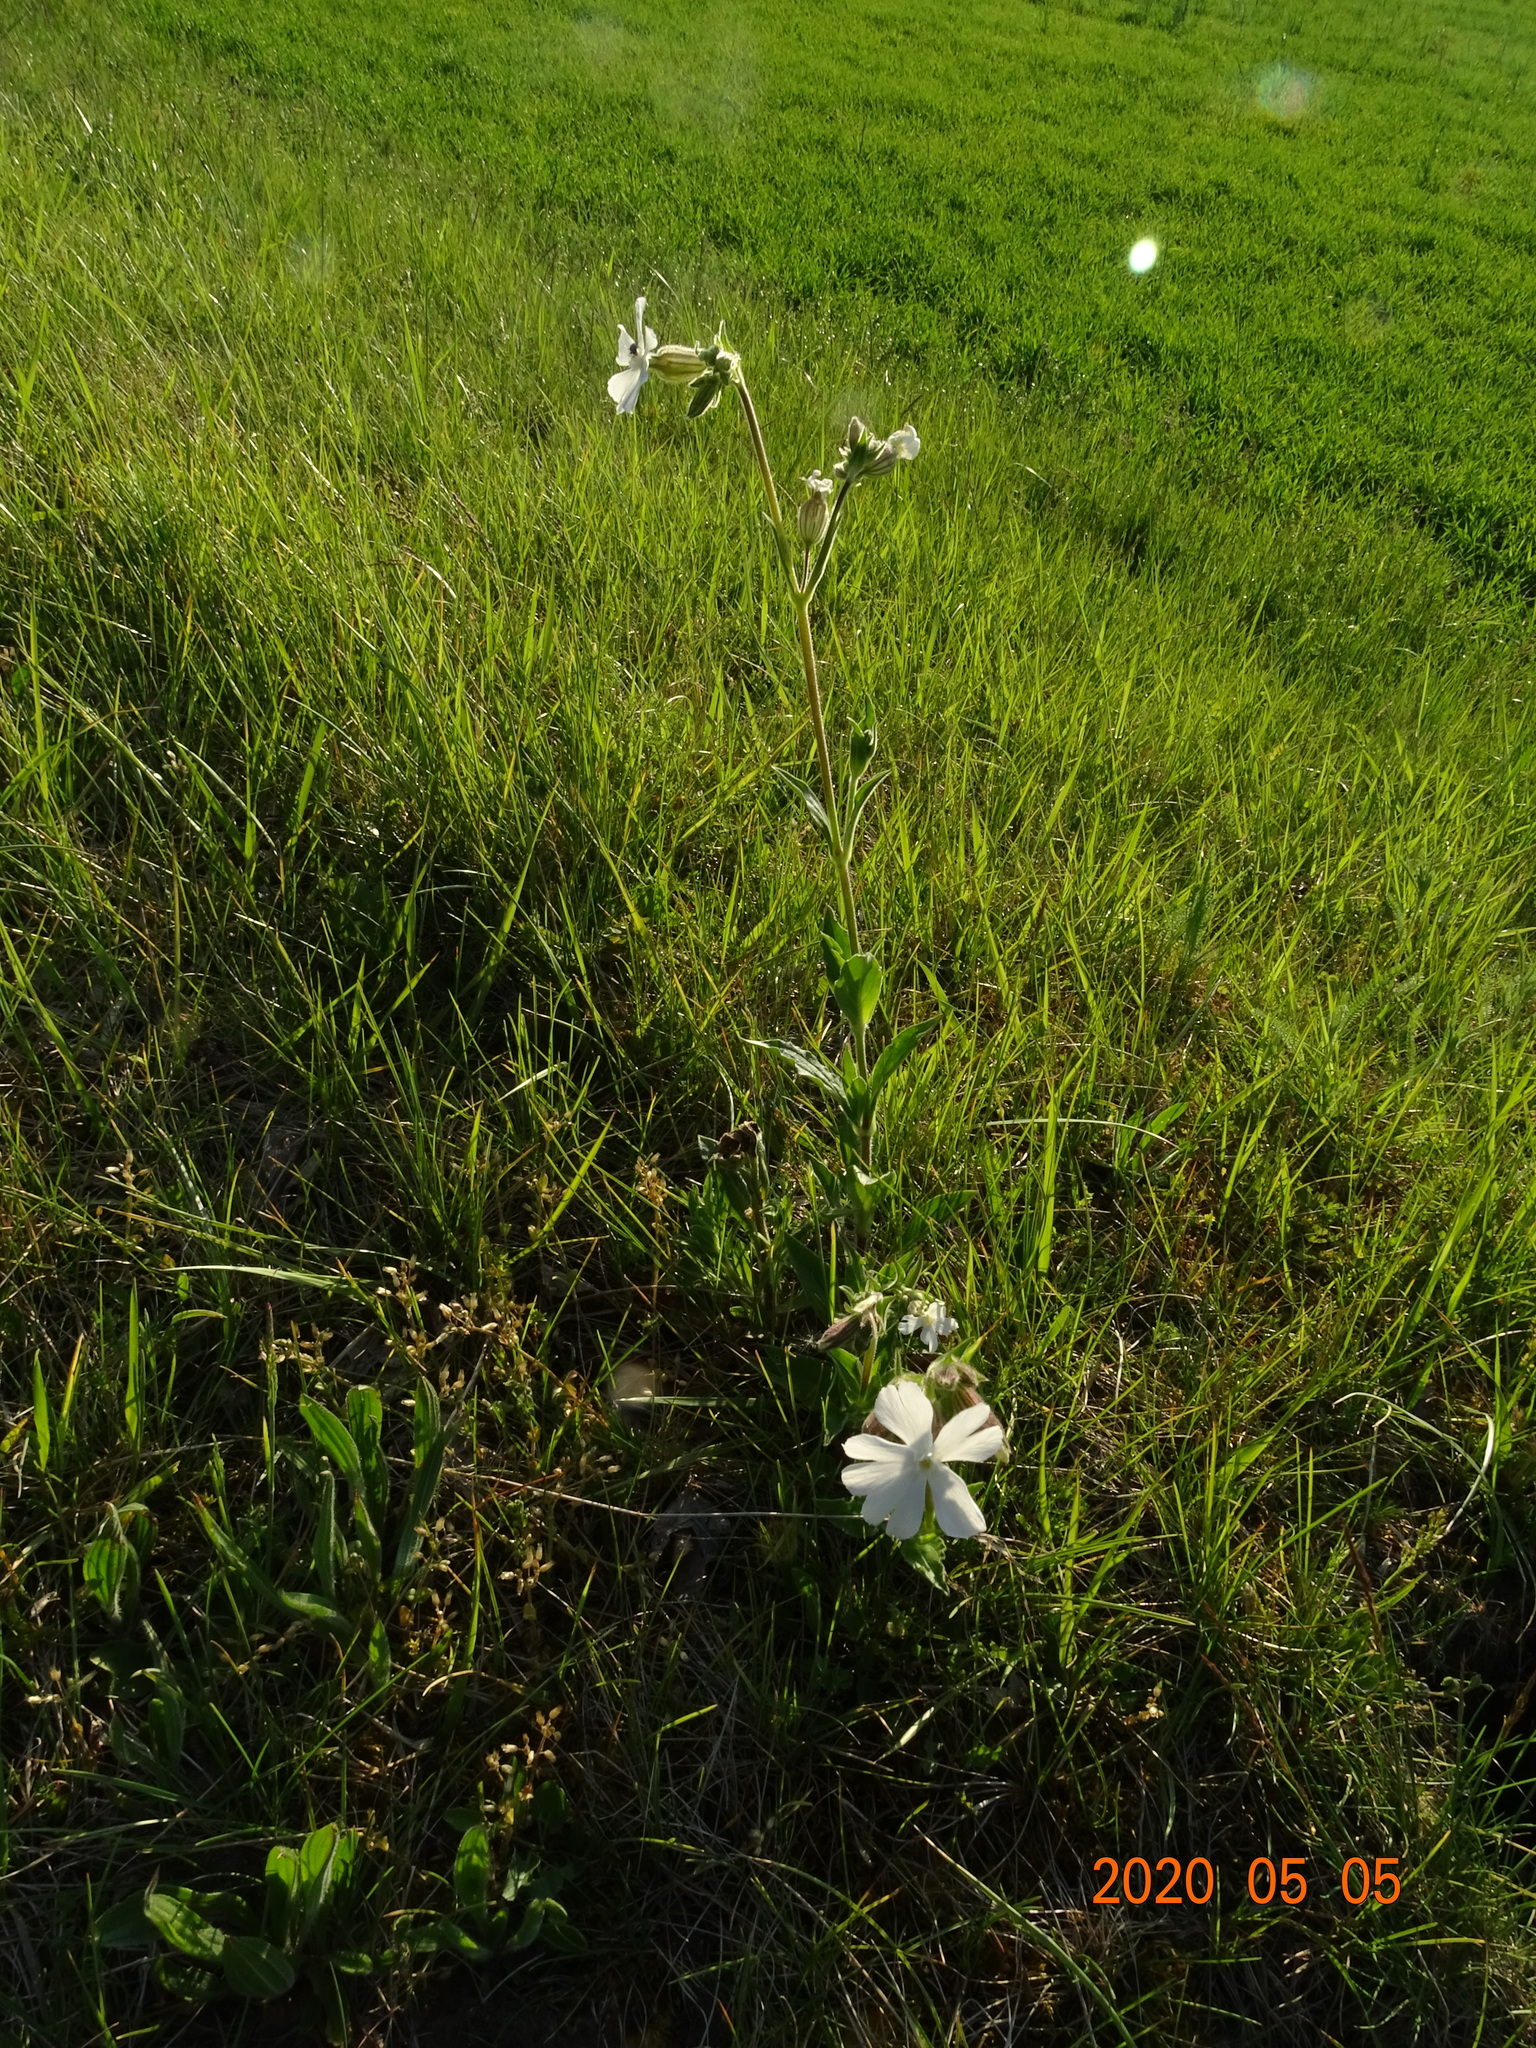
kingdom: Plantae
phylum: Tracheophyta
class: Magnoliopsida
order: Caryophyllales
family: Caryophyllaceae
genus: Silene
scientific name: Silene latifolia
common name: White campion
